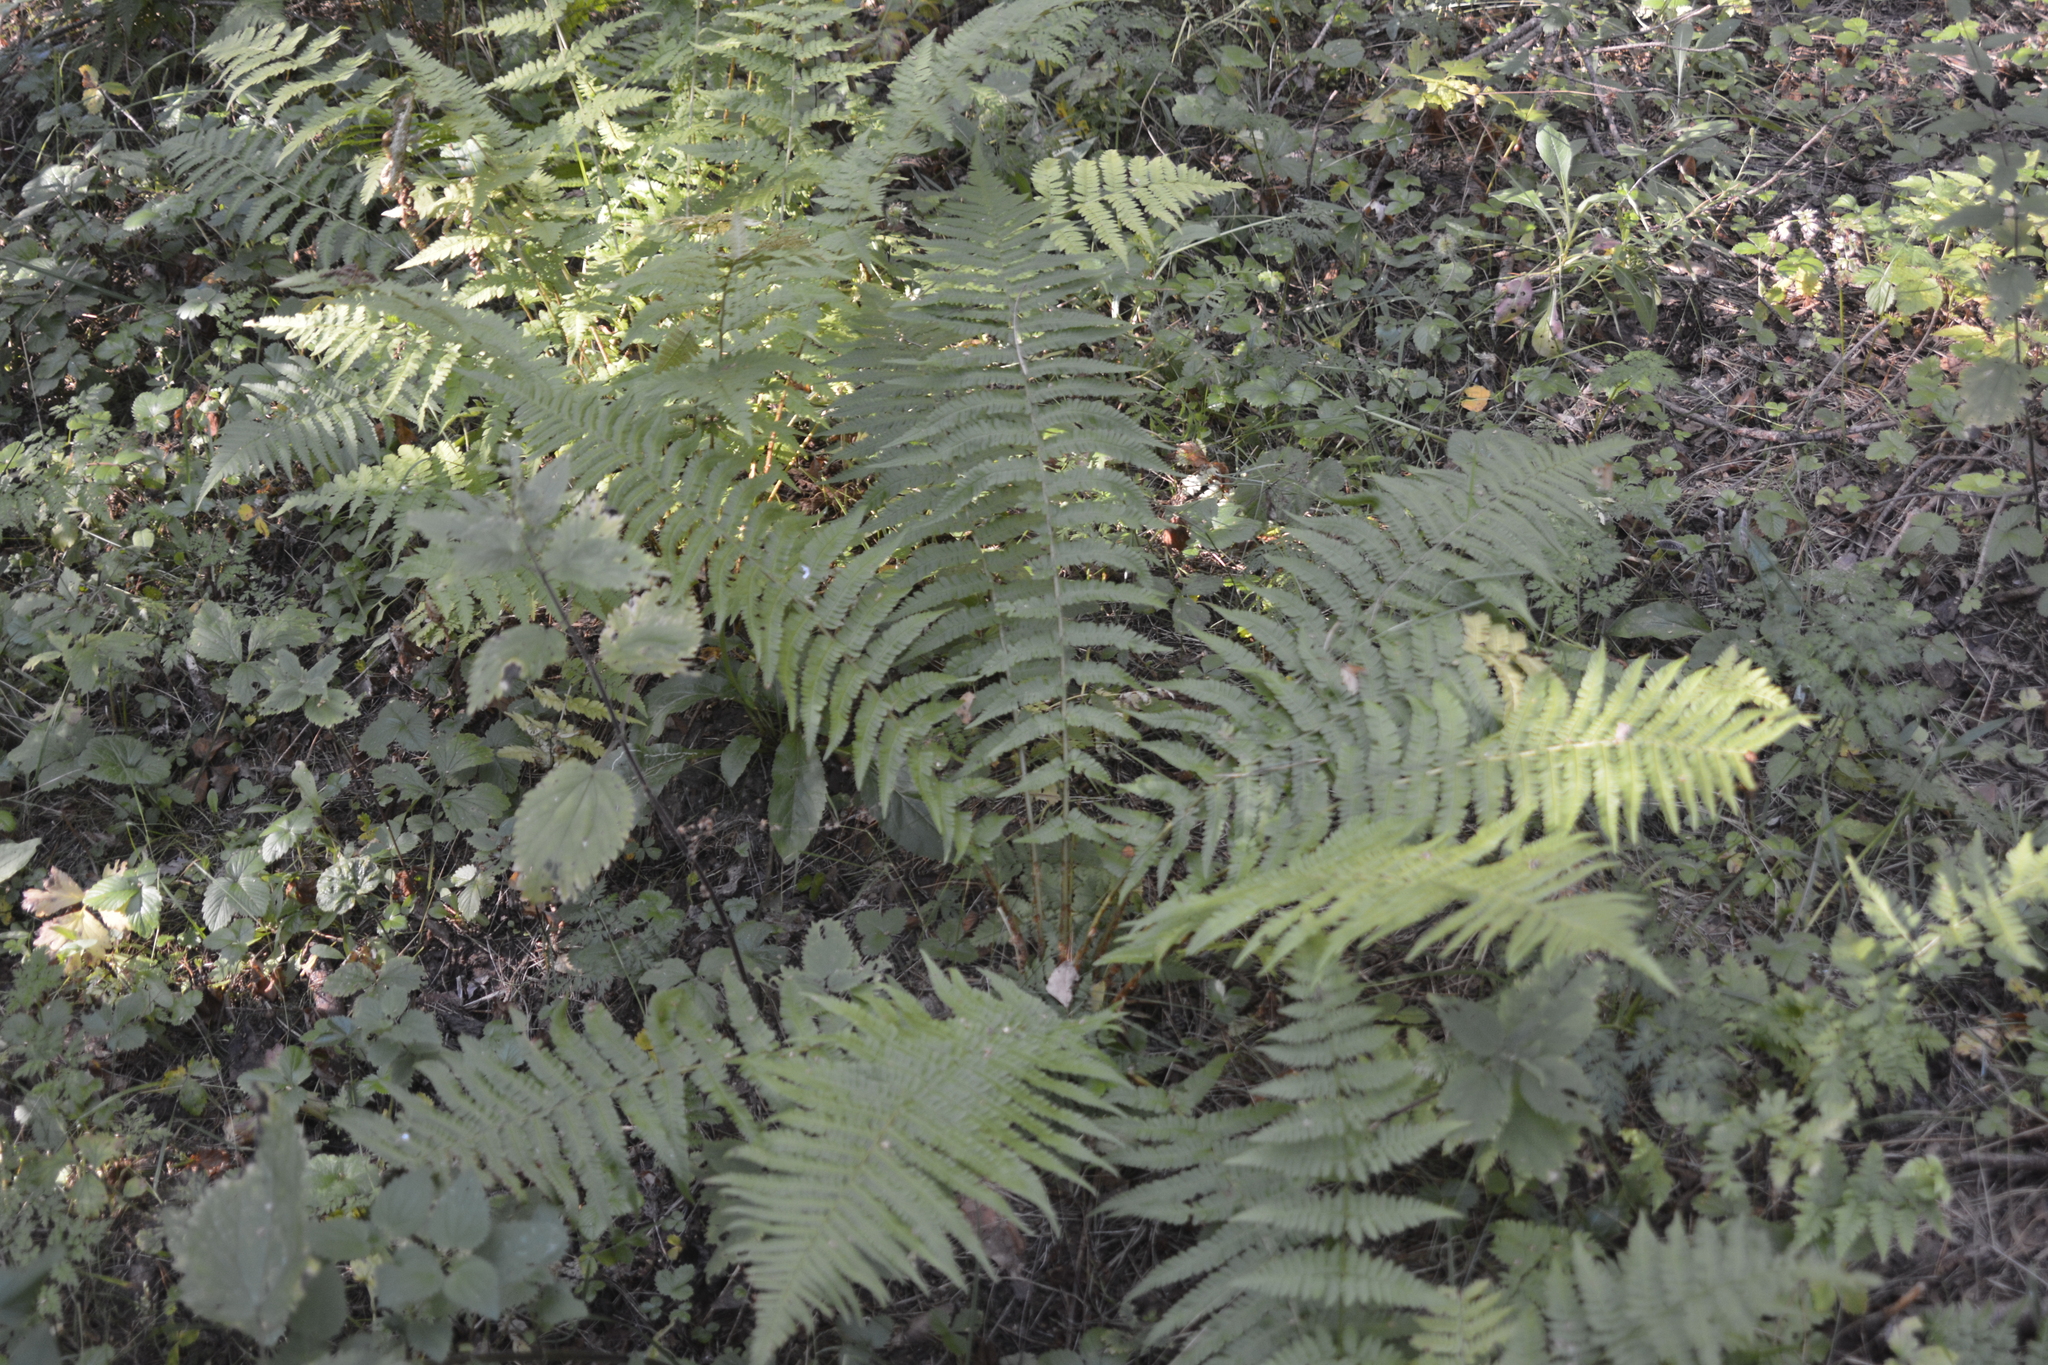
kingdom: Plantae
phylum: Tracheophyta
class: Polypodiopsida
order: Polypodiales
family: Dryopteridaceae
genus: Dryopteris
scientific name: Dryopteris filix-mas
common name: Male fern
